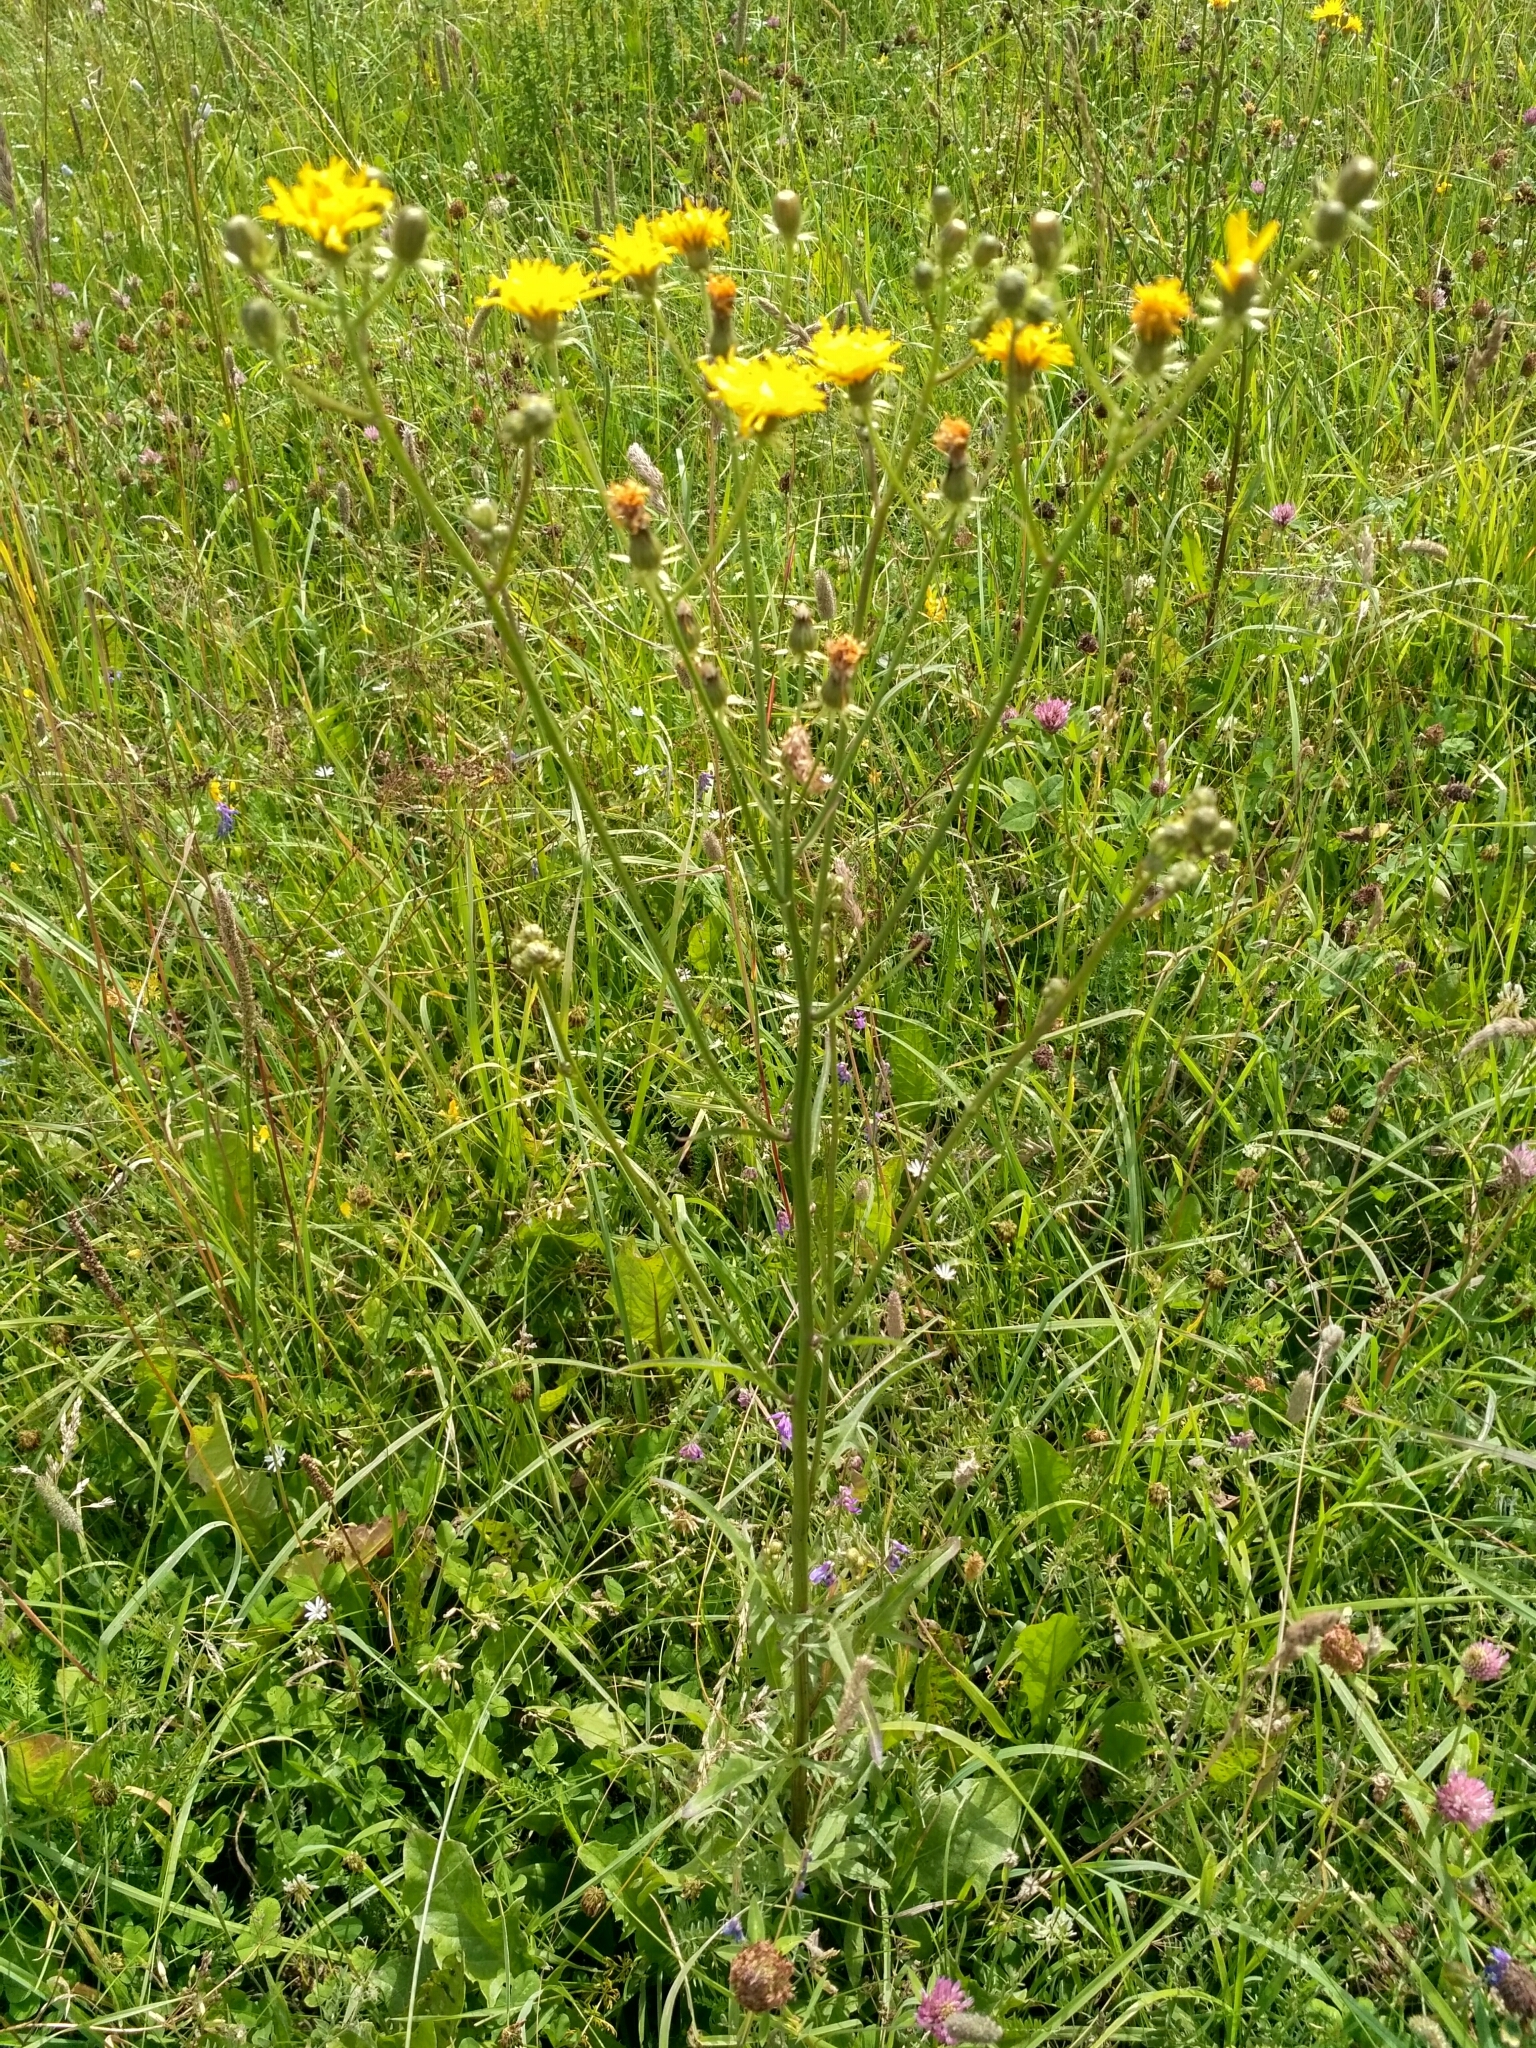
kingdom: Plantae
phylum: Tracheophyta
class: Magnoliopsida
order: Asterales
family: Asteraceae
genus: Crepis
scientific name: Crepis biennis
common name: Rough hawk's-beard
